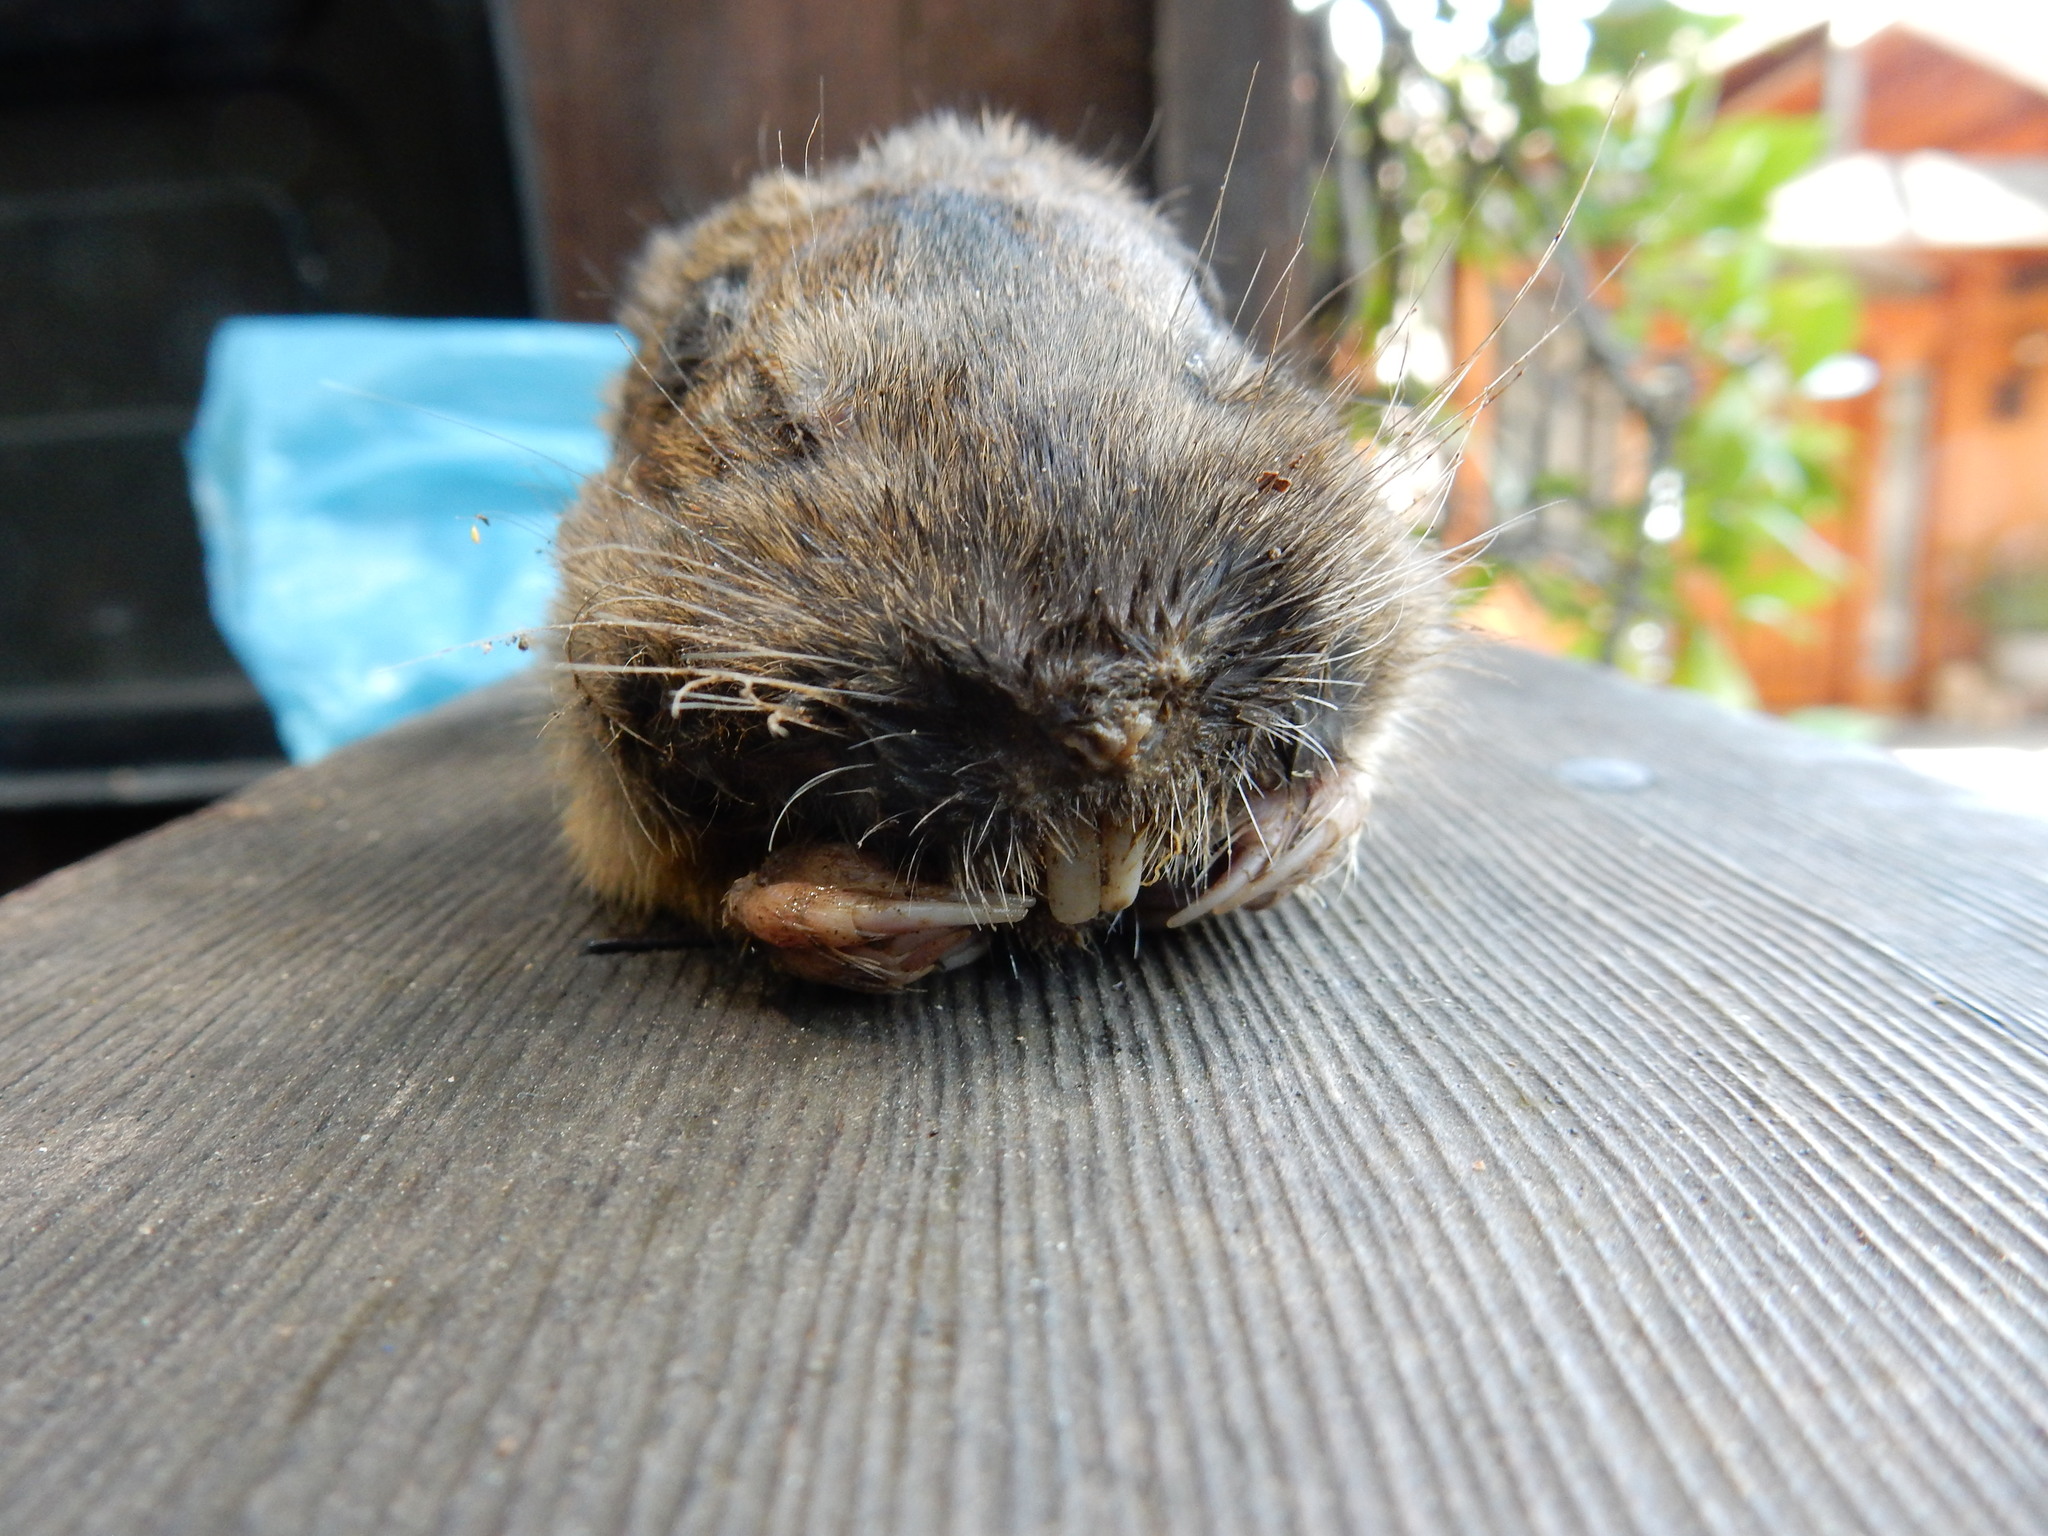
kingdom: Animalia
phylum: Chordata
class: Mammalia
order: Rodentia
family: Geomyidae
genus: Thomomys
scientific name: Thomomys bottae
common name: Botta's pocket gopher
